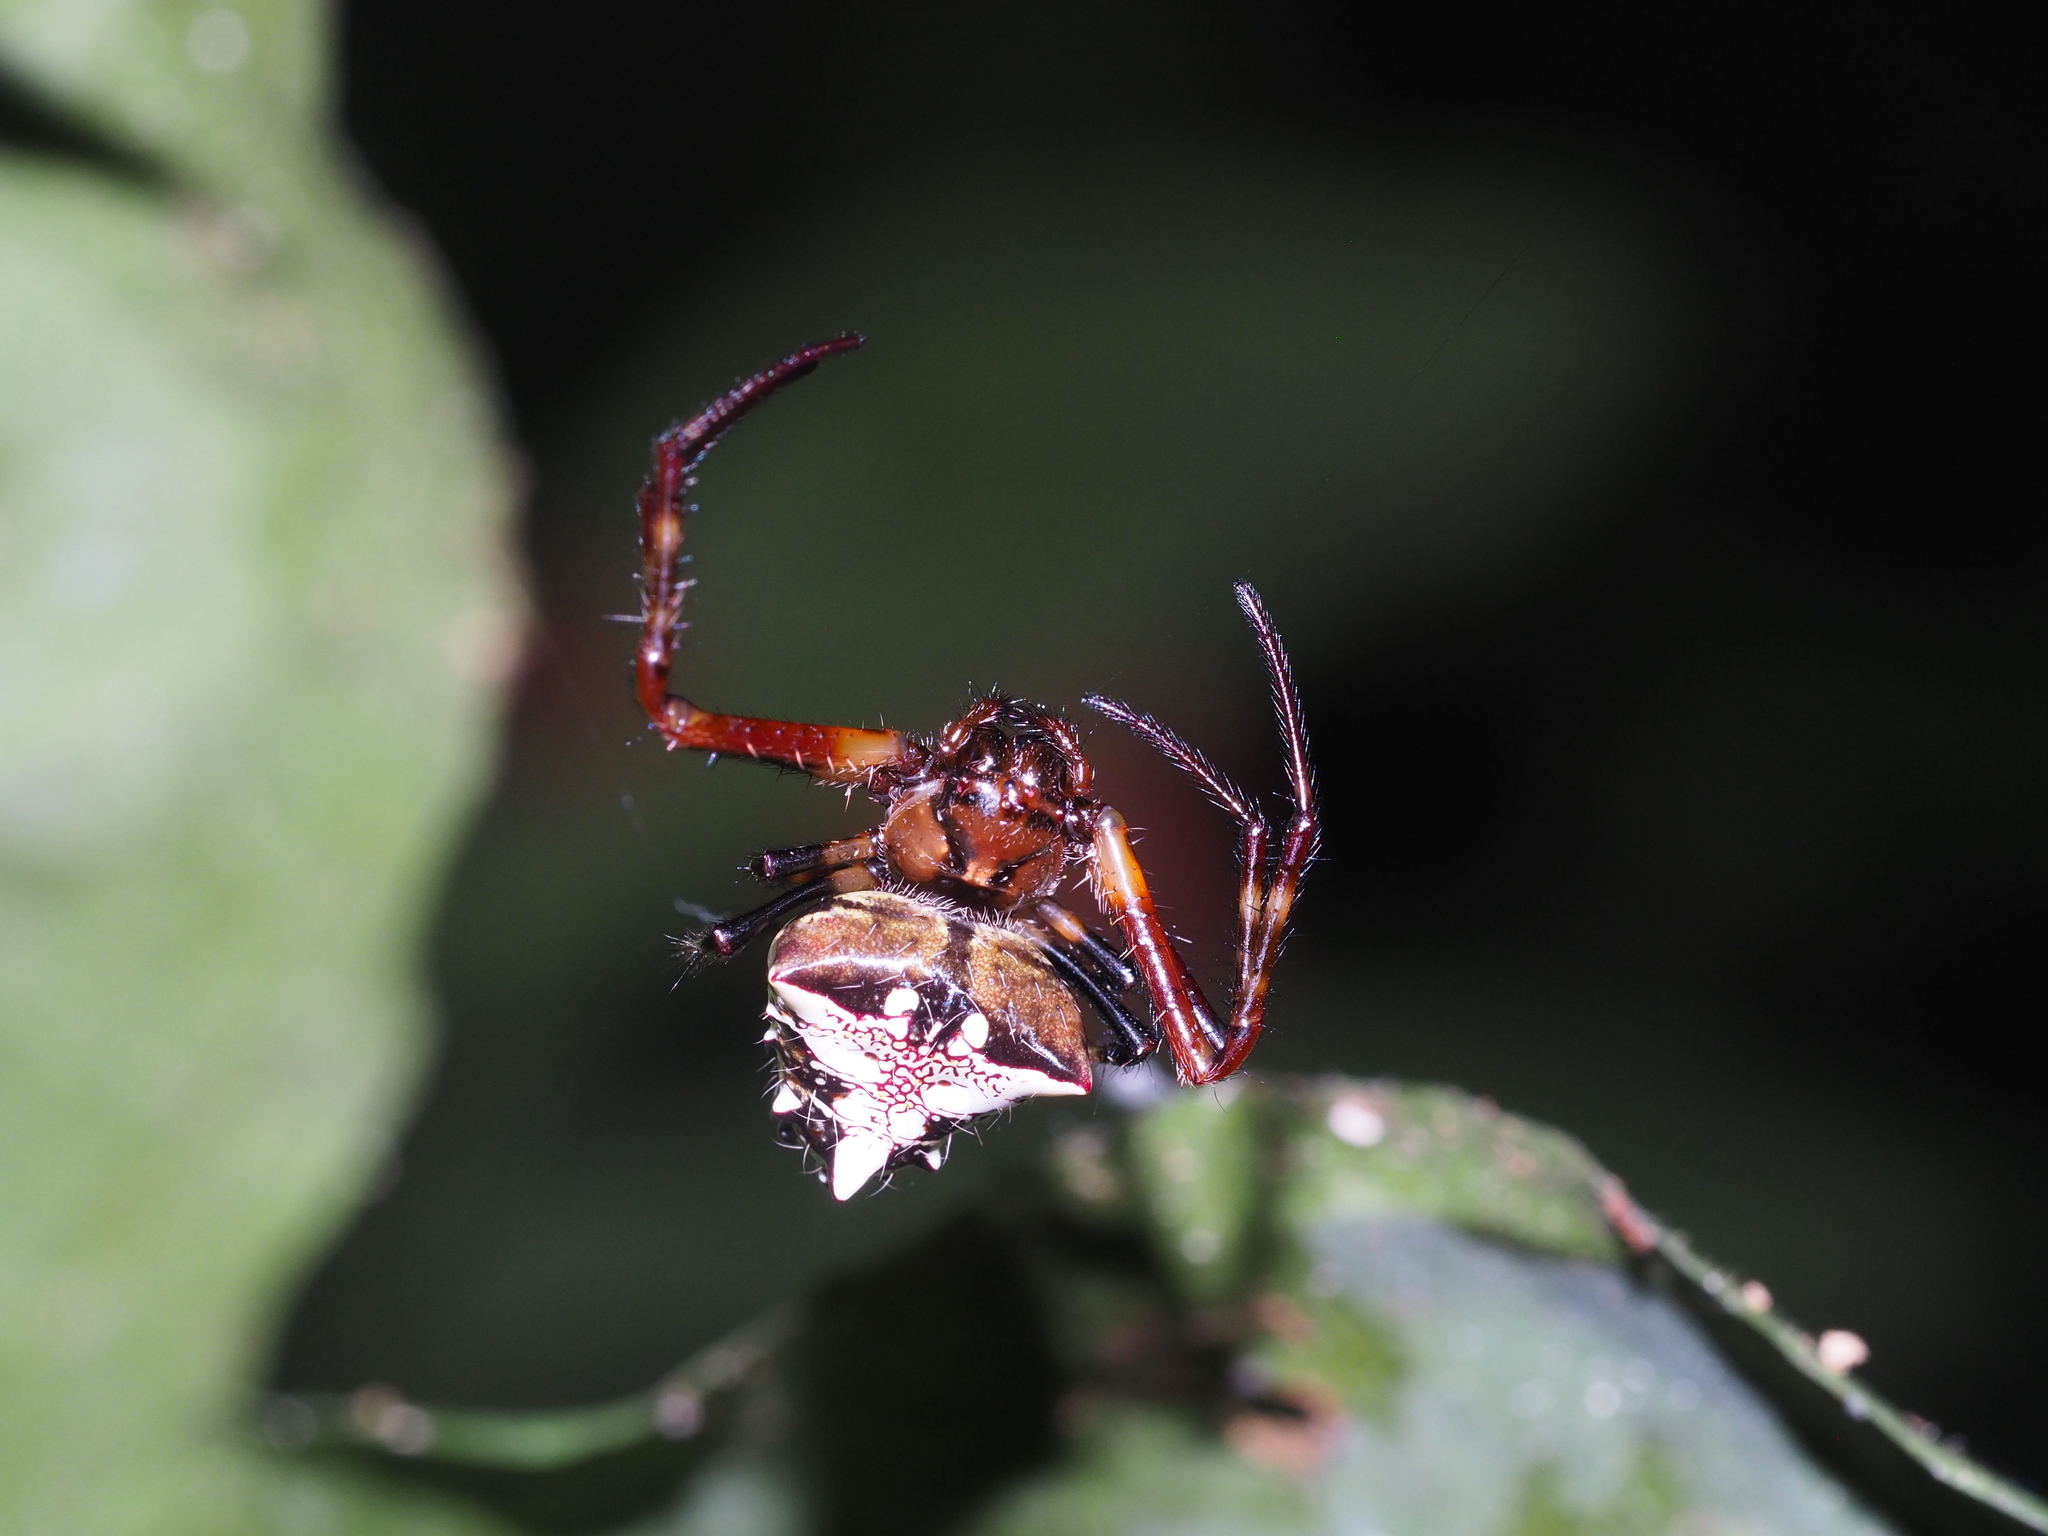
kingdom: Animalia
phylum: Arthropoda
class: Arachnida
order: Araneae
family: Araneidae
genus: Verrucosa
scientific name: Verrucosa arenata
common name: Orb weavers
